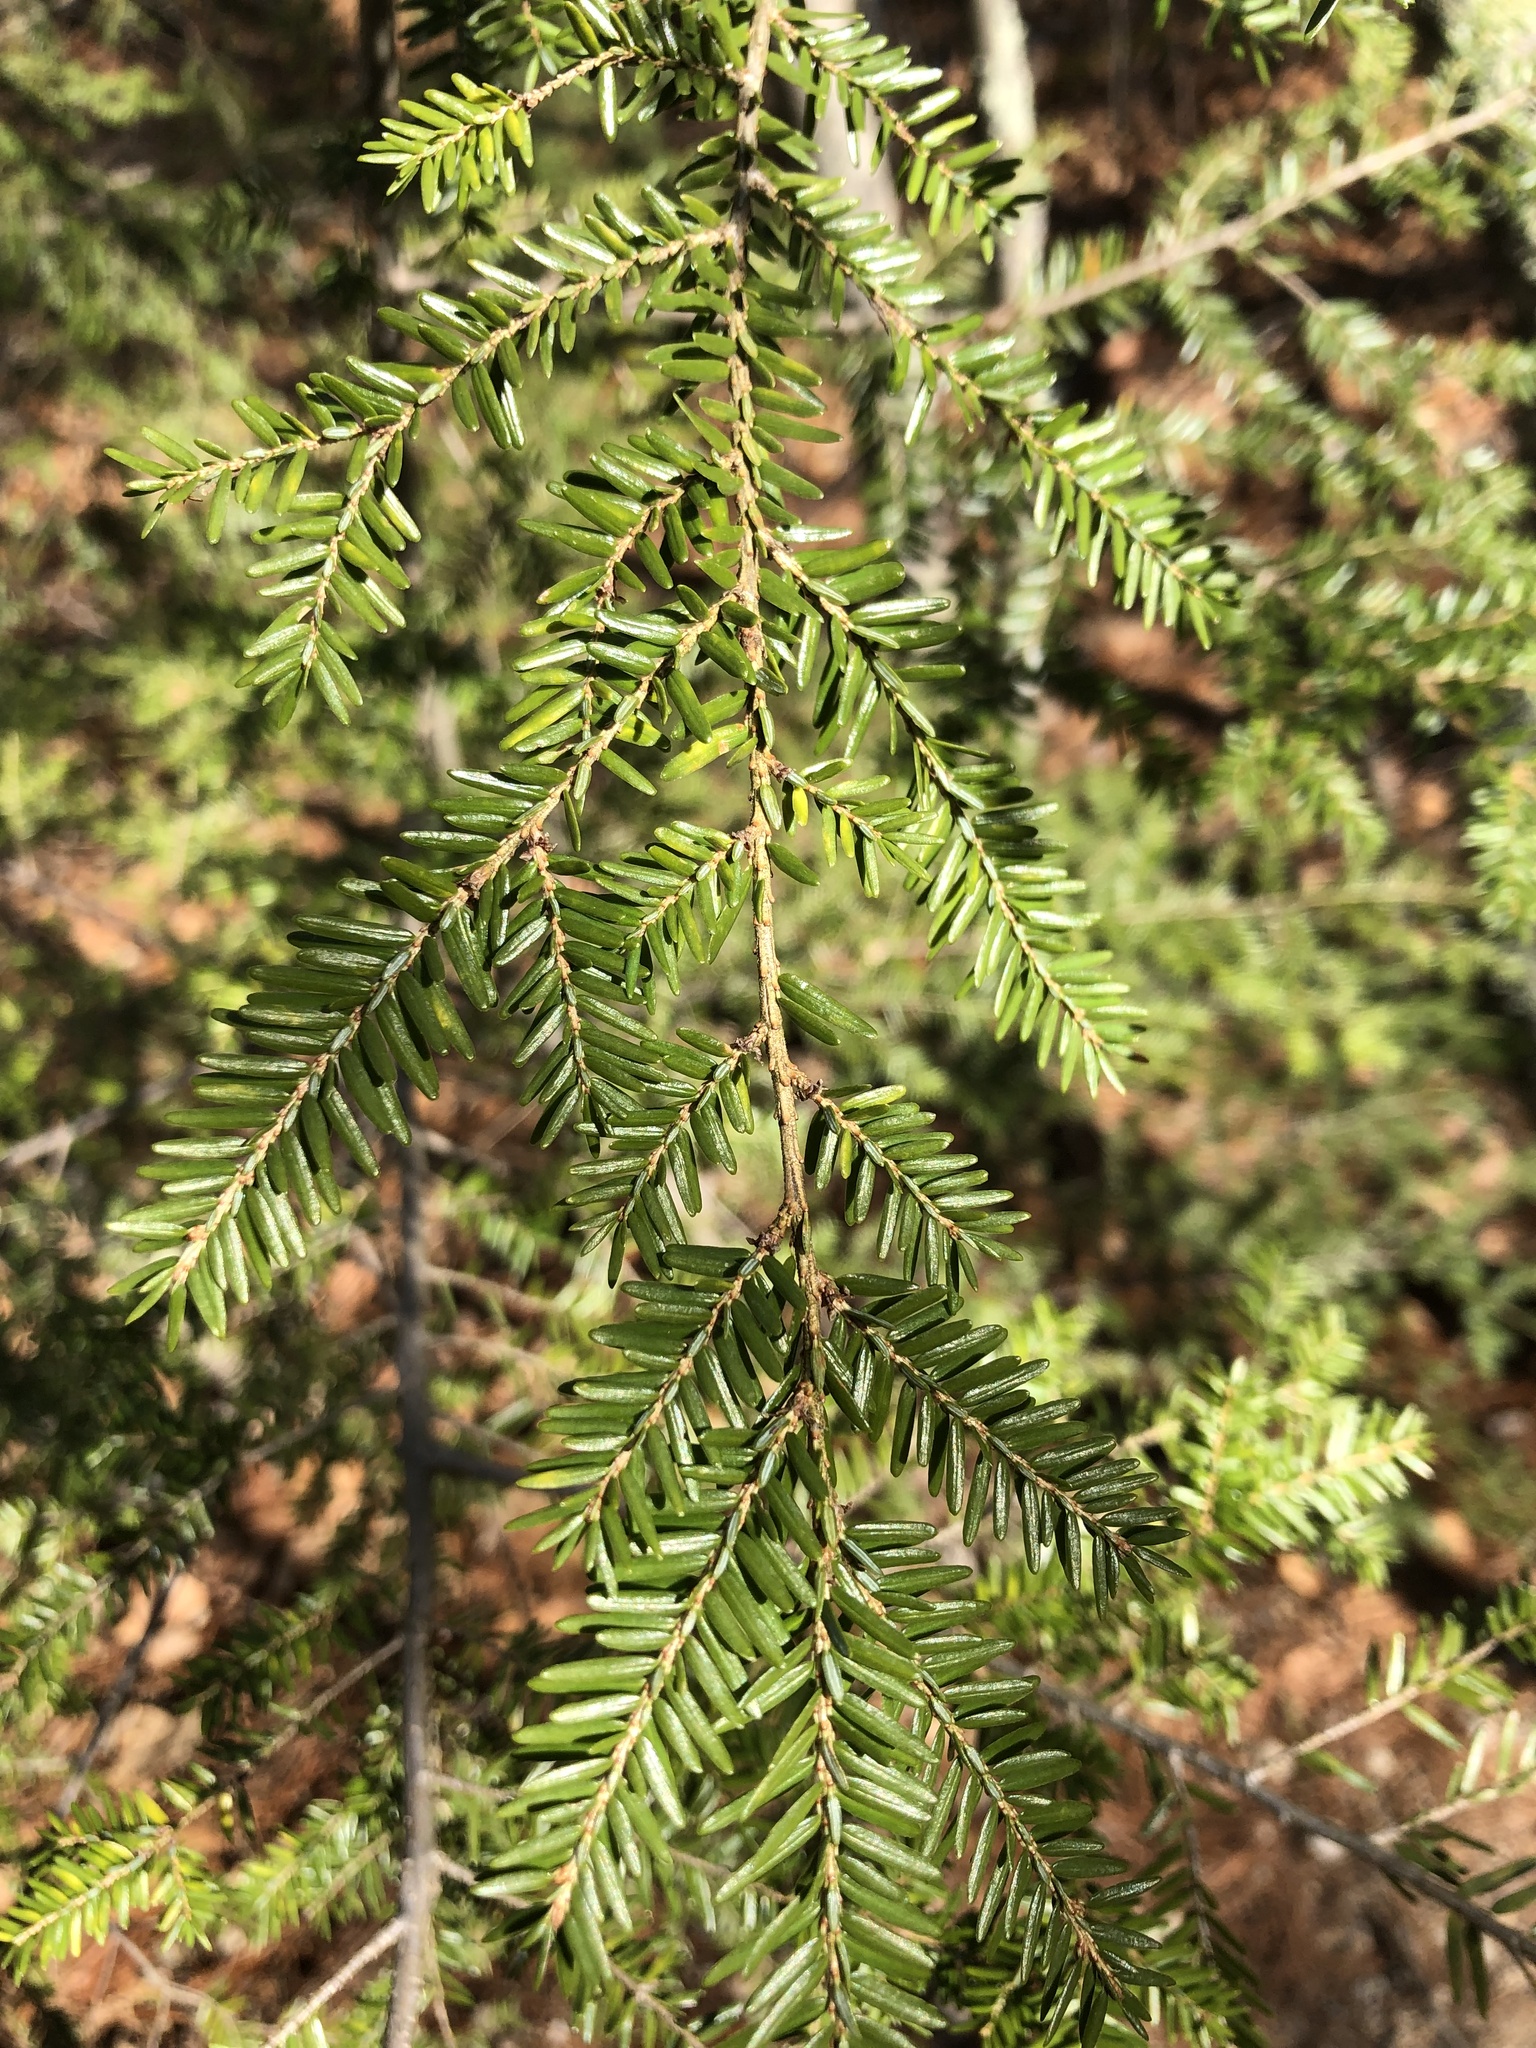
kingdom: Plantae
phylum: Tracheophyta
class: Pinopsida
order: Pinales
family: Pinaceae
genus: Tsuga
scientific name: Tsuga canadensis
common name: Eastern hemlock
